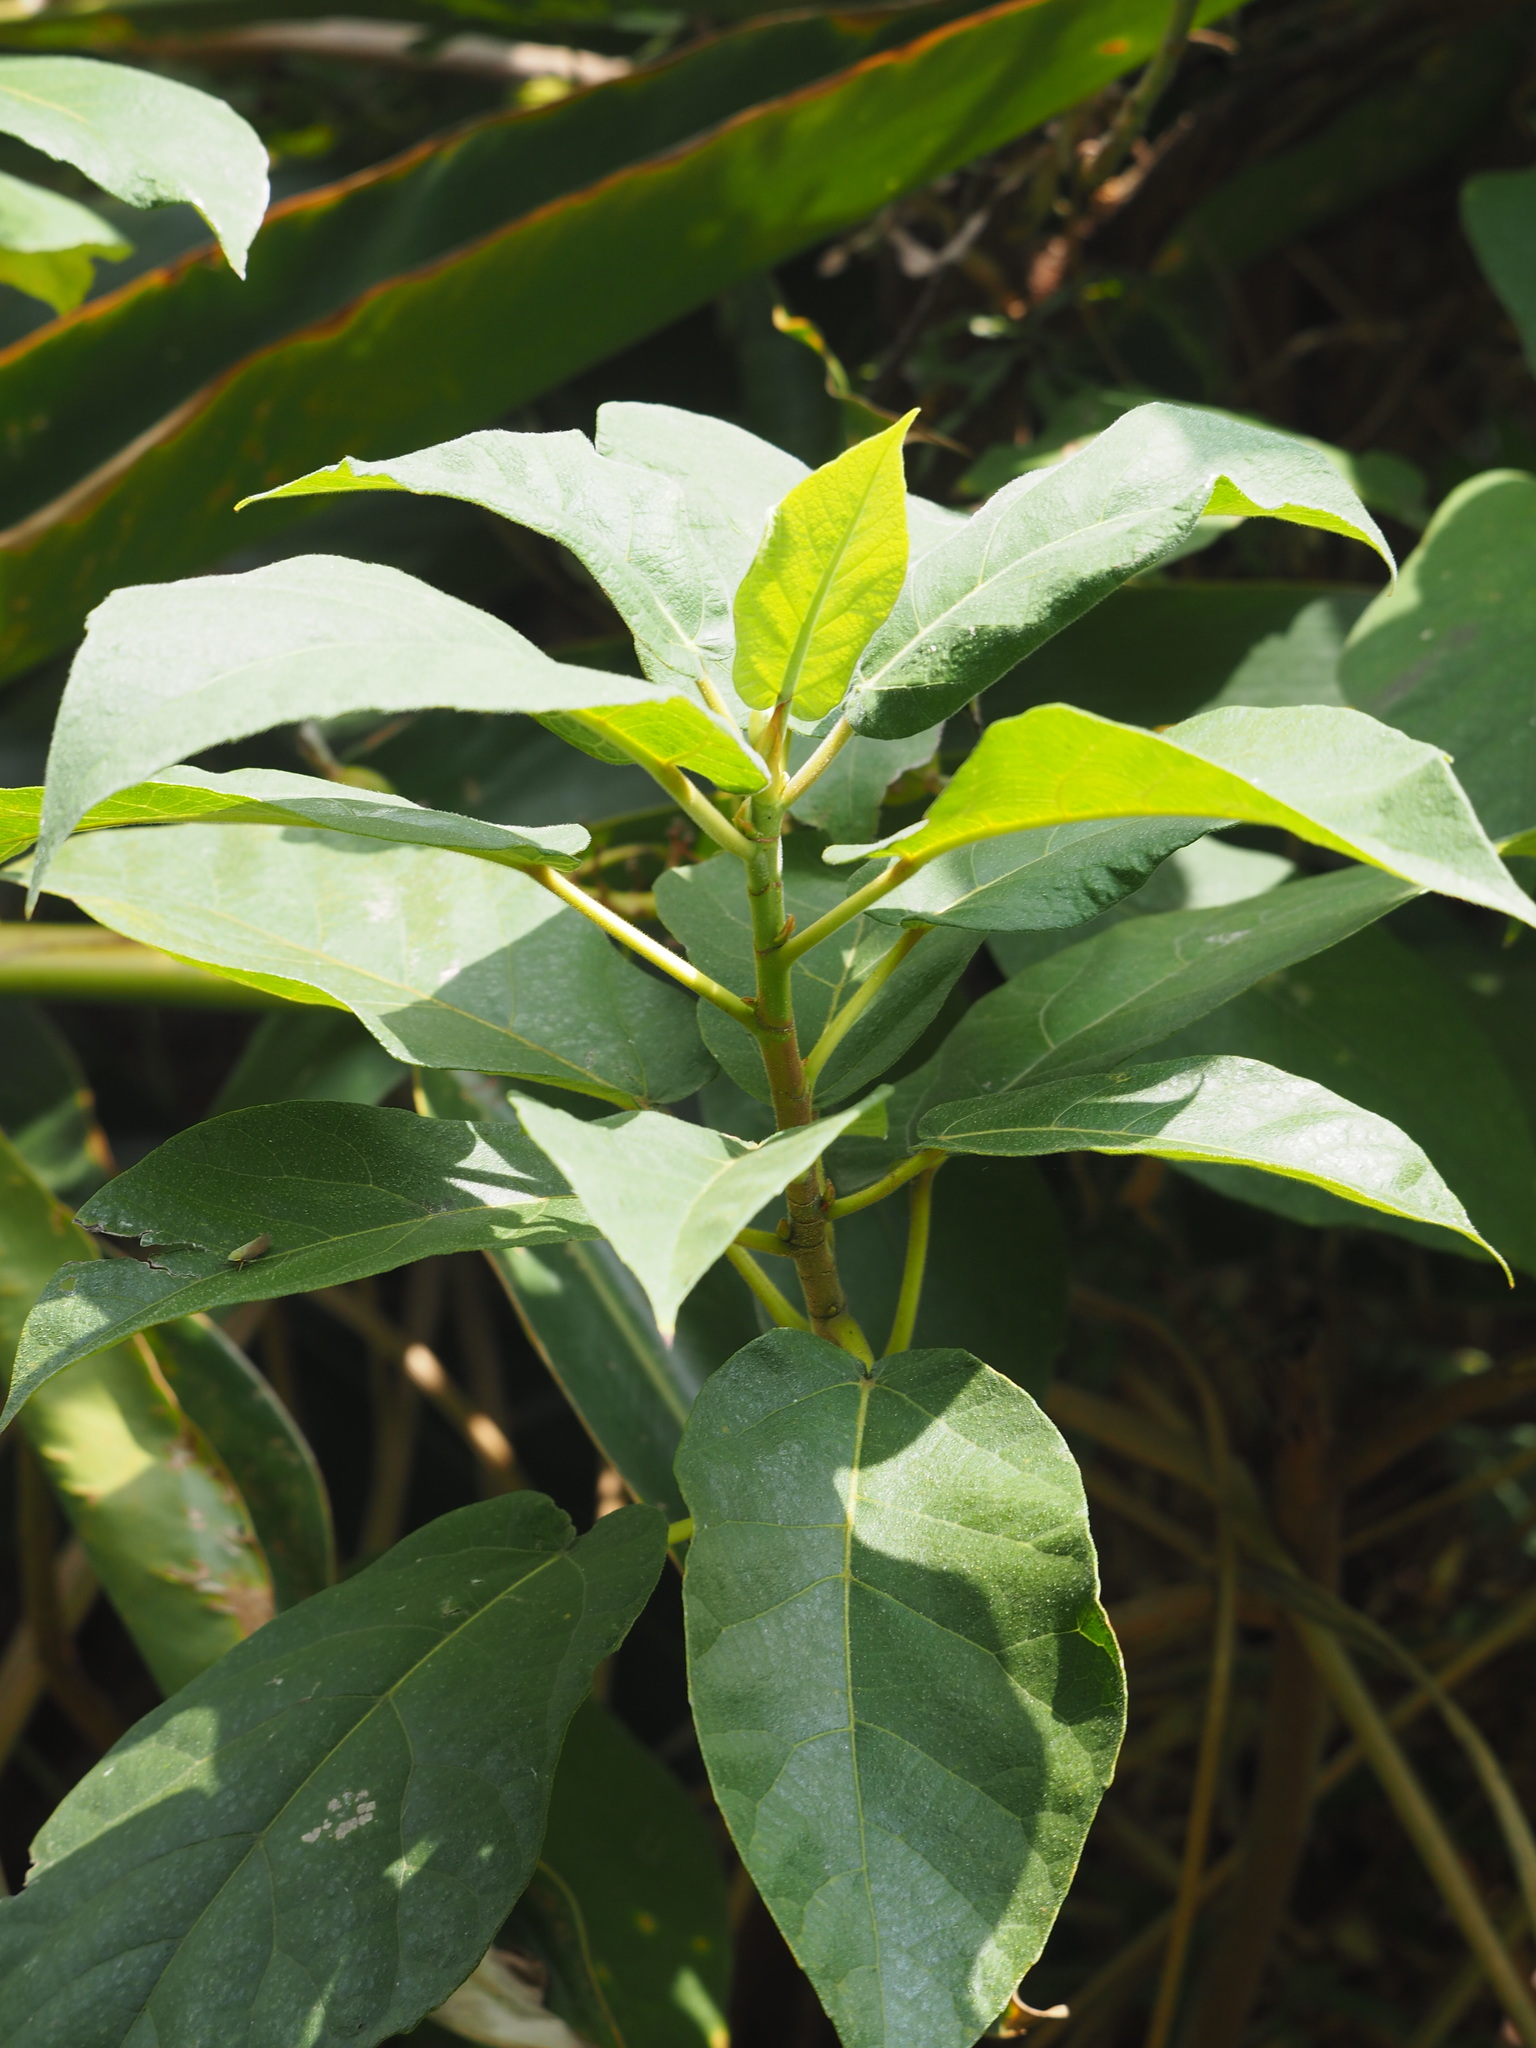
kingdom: Plantae
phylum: Tracheophyta
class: Magnoliopsida
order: Rosales
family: Moraceae
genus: Ficus
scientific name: Ficus erecta
